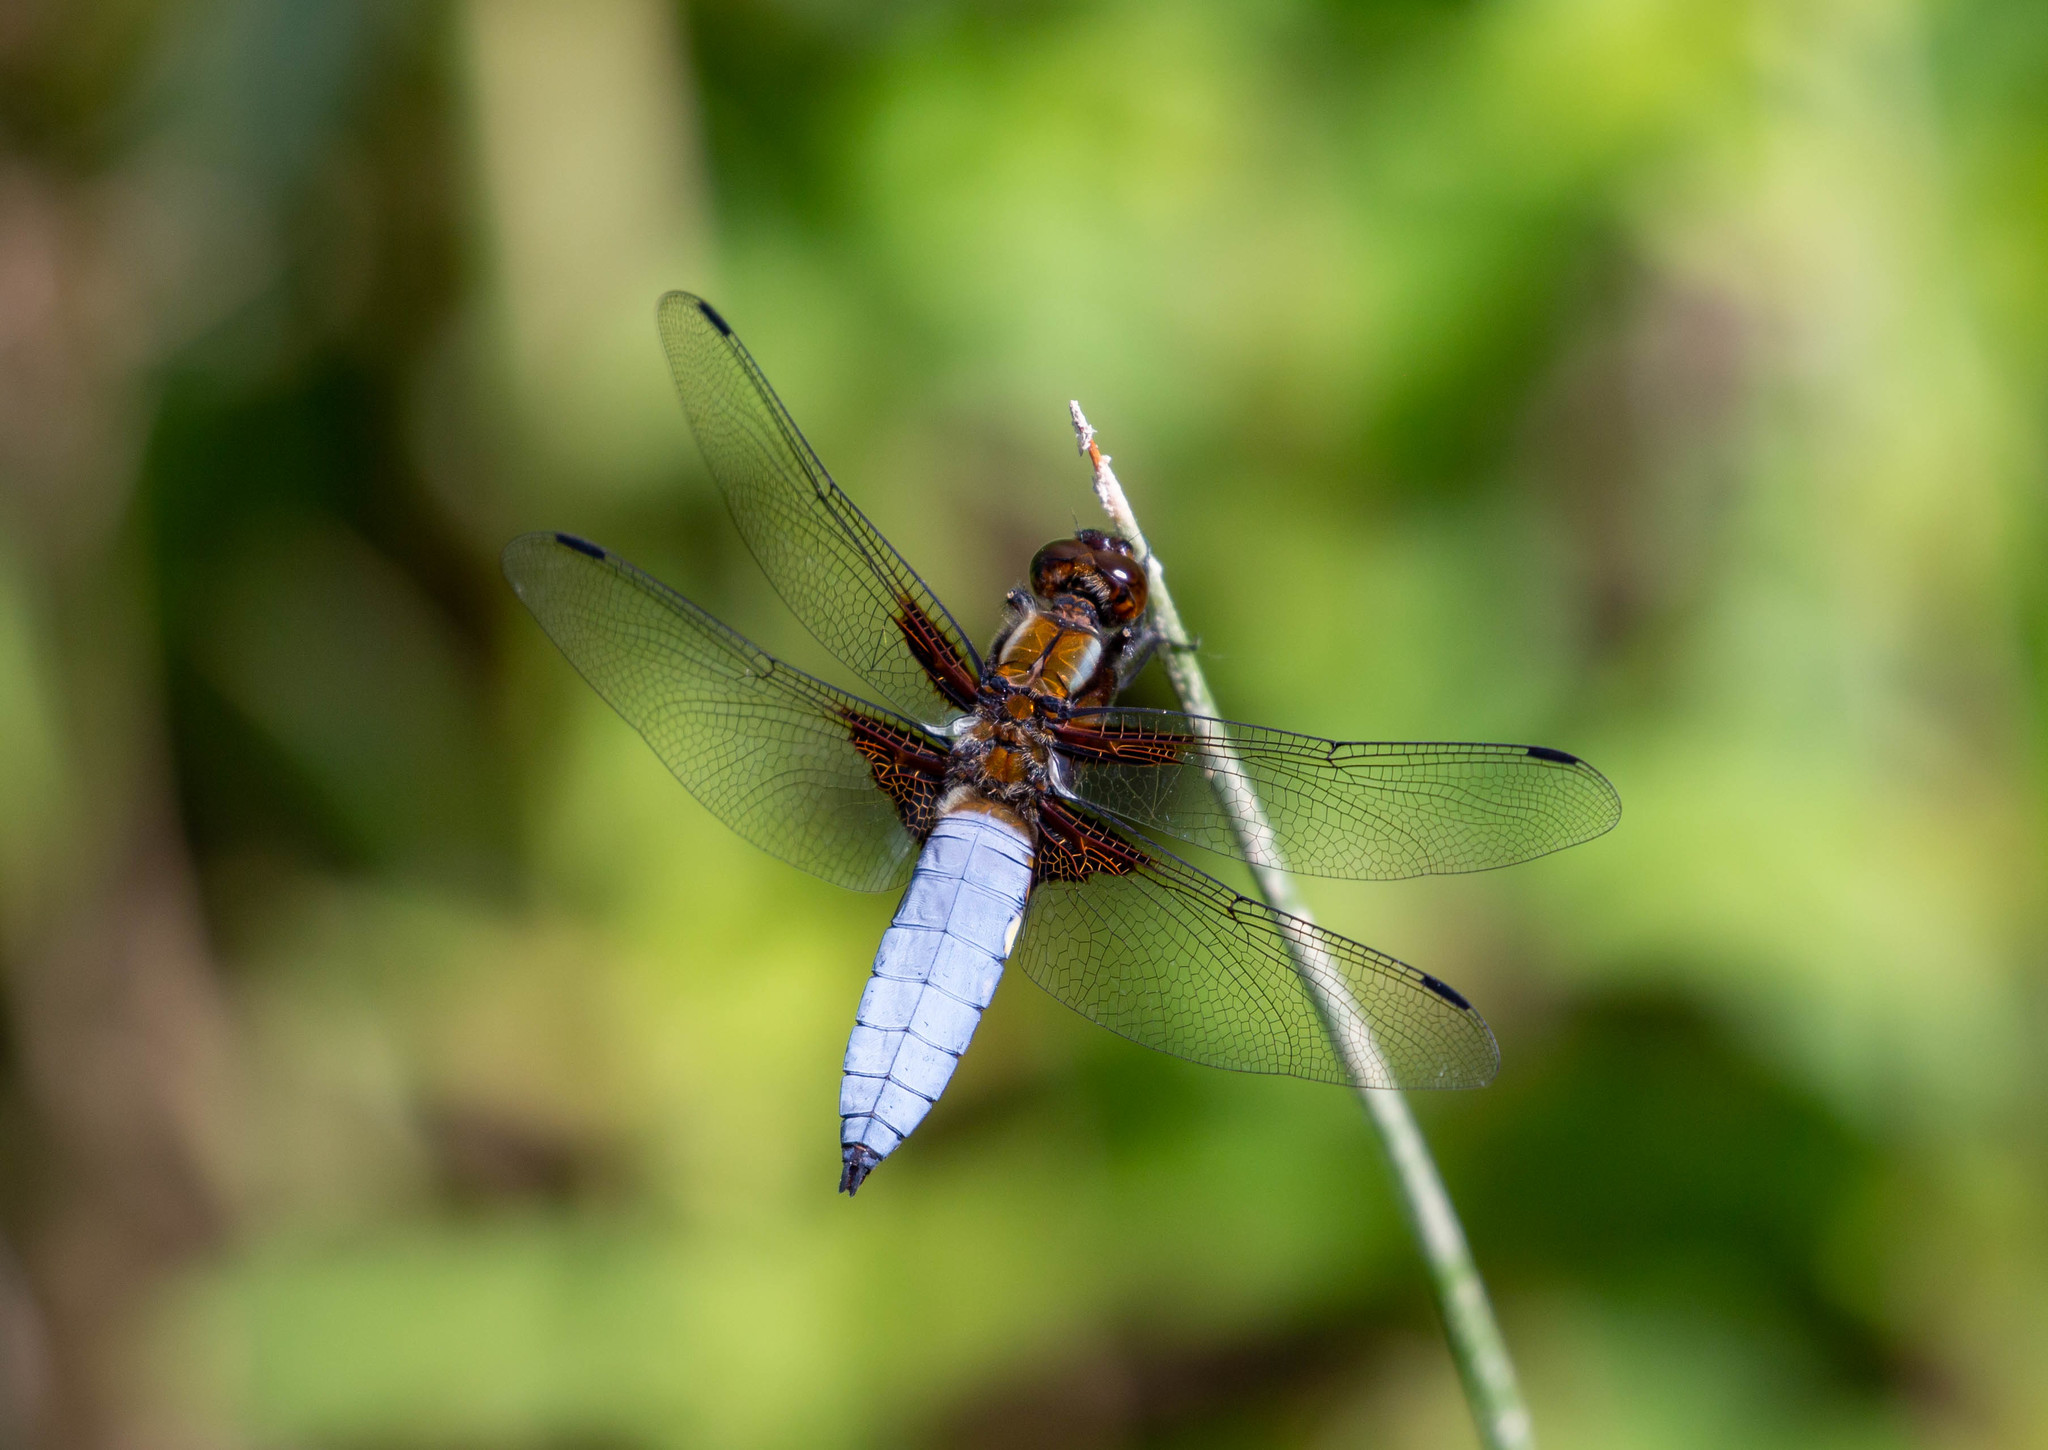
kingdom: Animalia
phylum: Arthropoda
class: Insecta
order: Odonata
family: Libellulidae
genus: Libellula
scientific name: Libellula depressa
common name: Broad-bodied chaser
